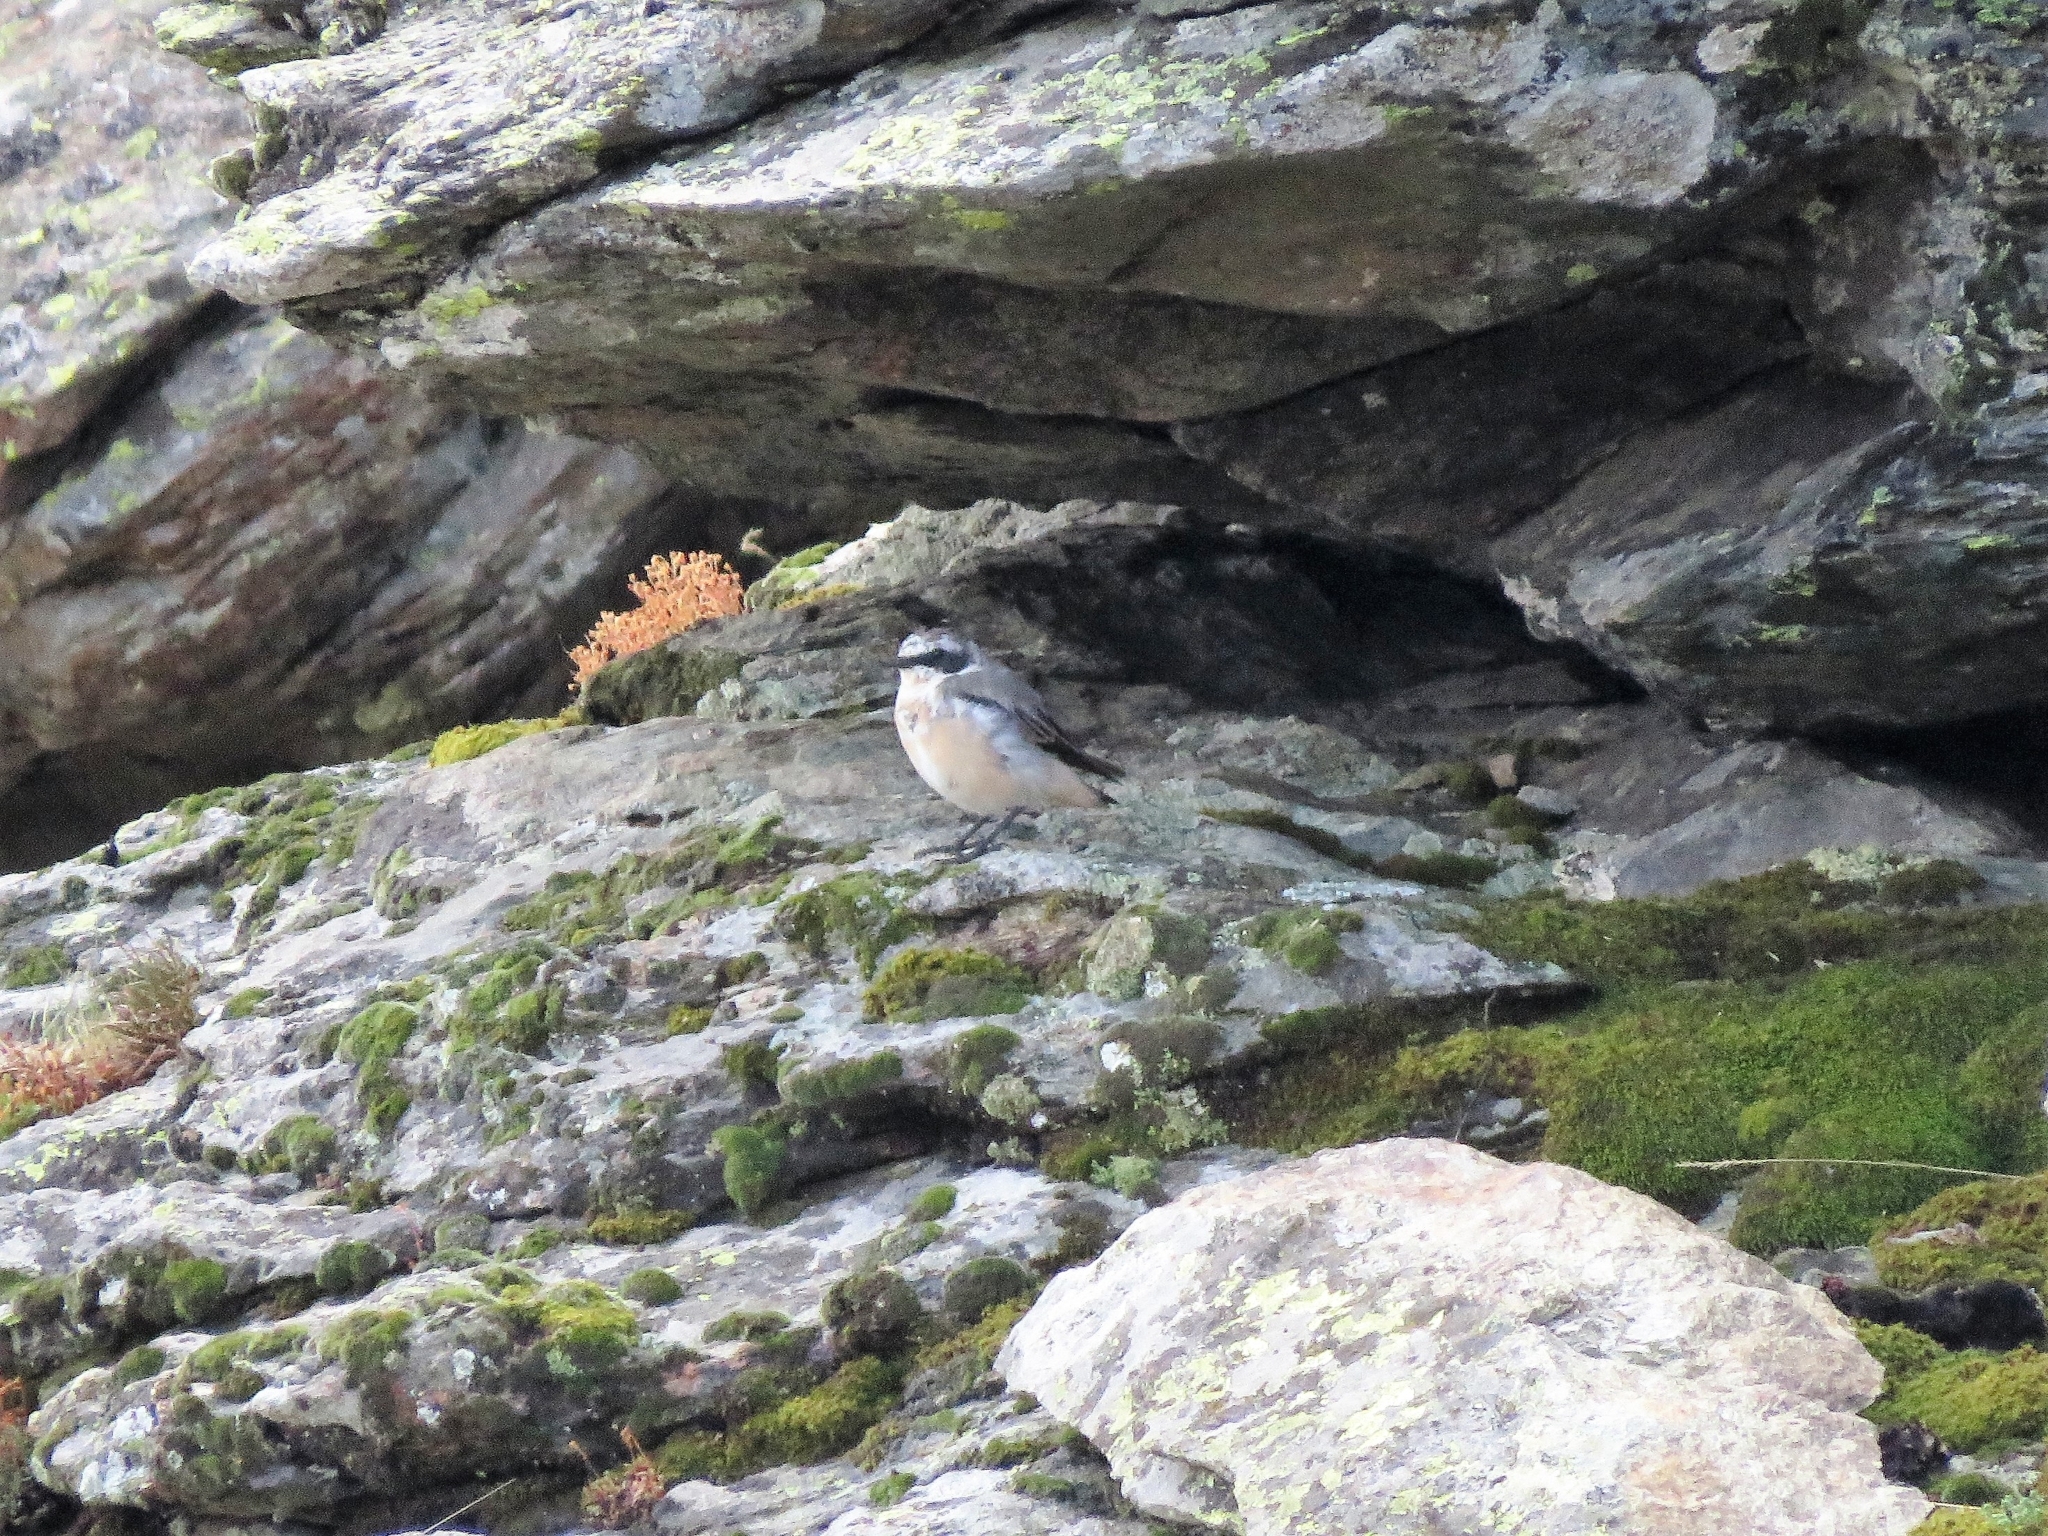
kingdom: Animalia
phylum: Chordata
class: Aves
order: Passeriformes
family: Muscicapidae
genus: Oenanthe
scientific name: Oenanthe oenanthe
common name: Northern wheatear
